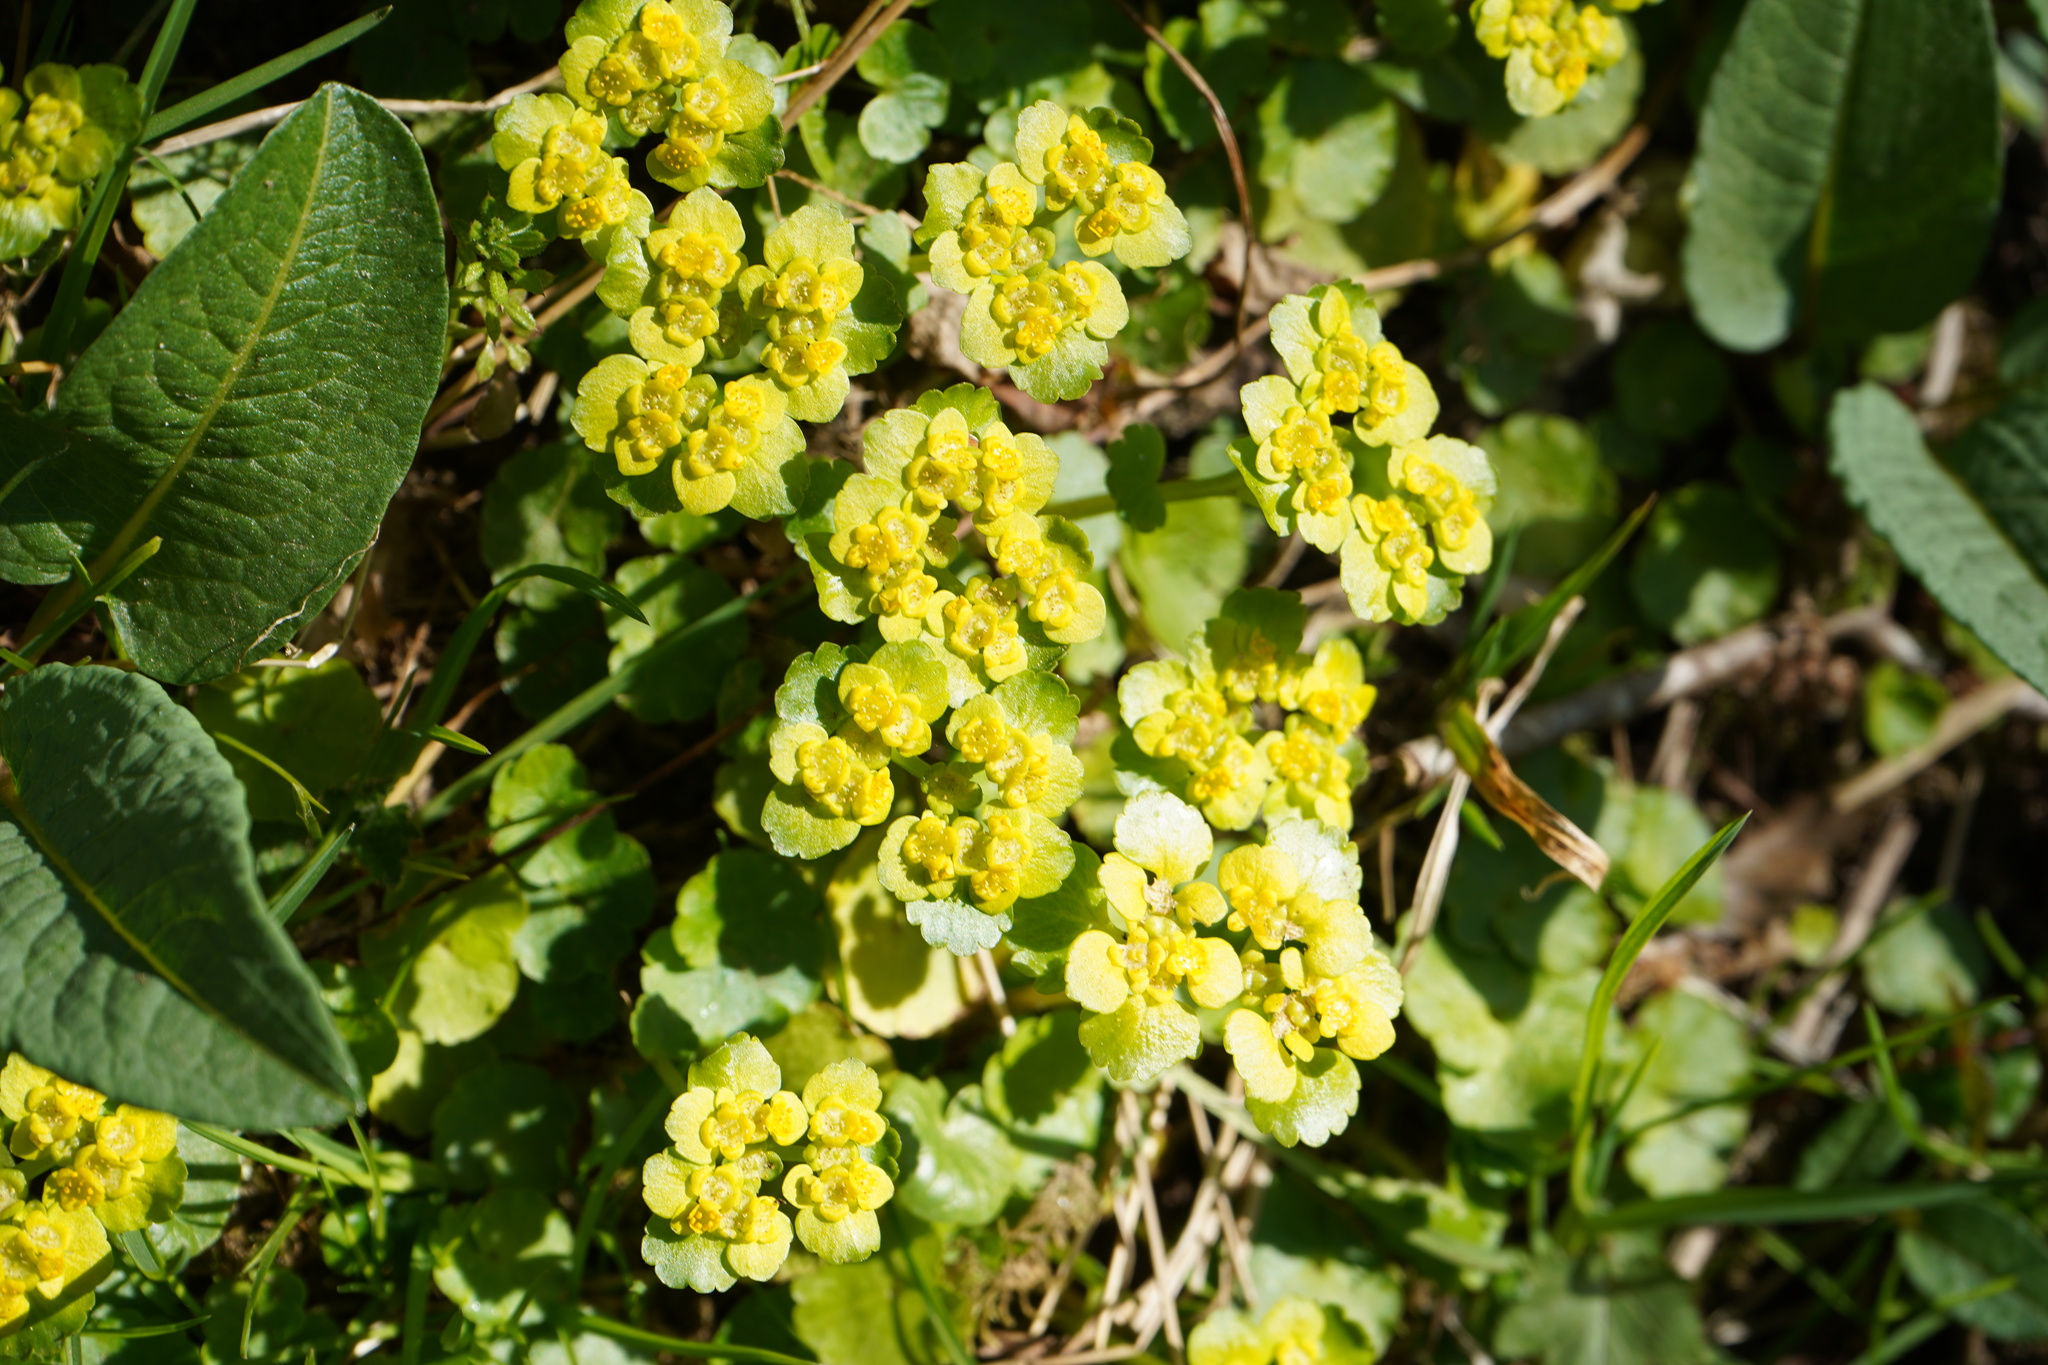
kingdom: Plantae
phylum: Tracheophyta
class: Magnoliopsida
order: Saxifragales
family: Saxifragaceae
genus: Chrysosplenium
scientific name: Chrysosplenium alternifolium
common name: Alternate-leaved golden-saxifrage
